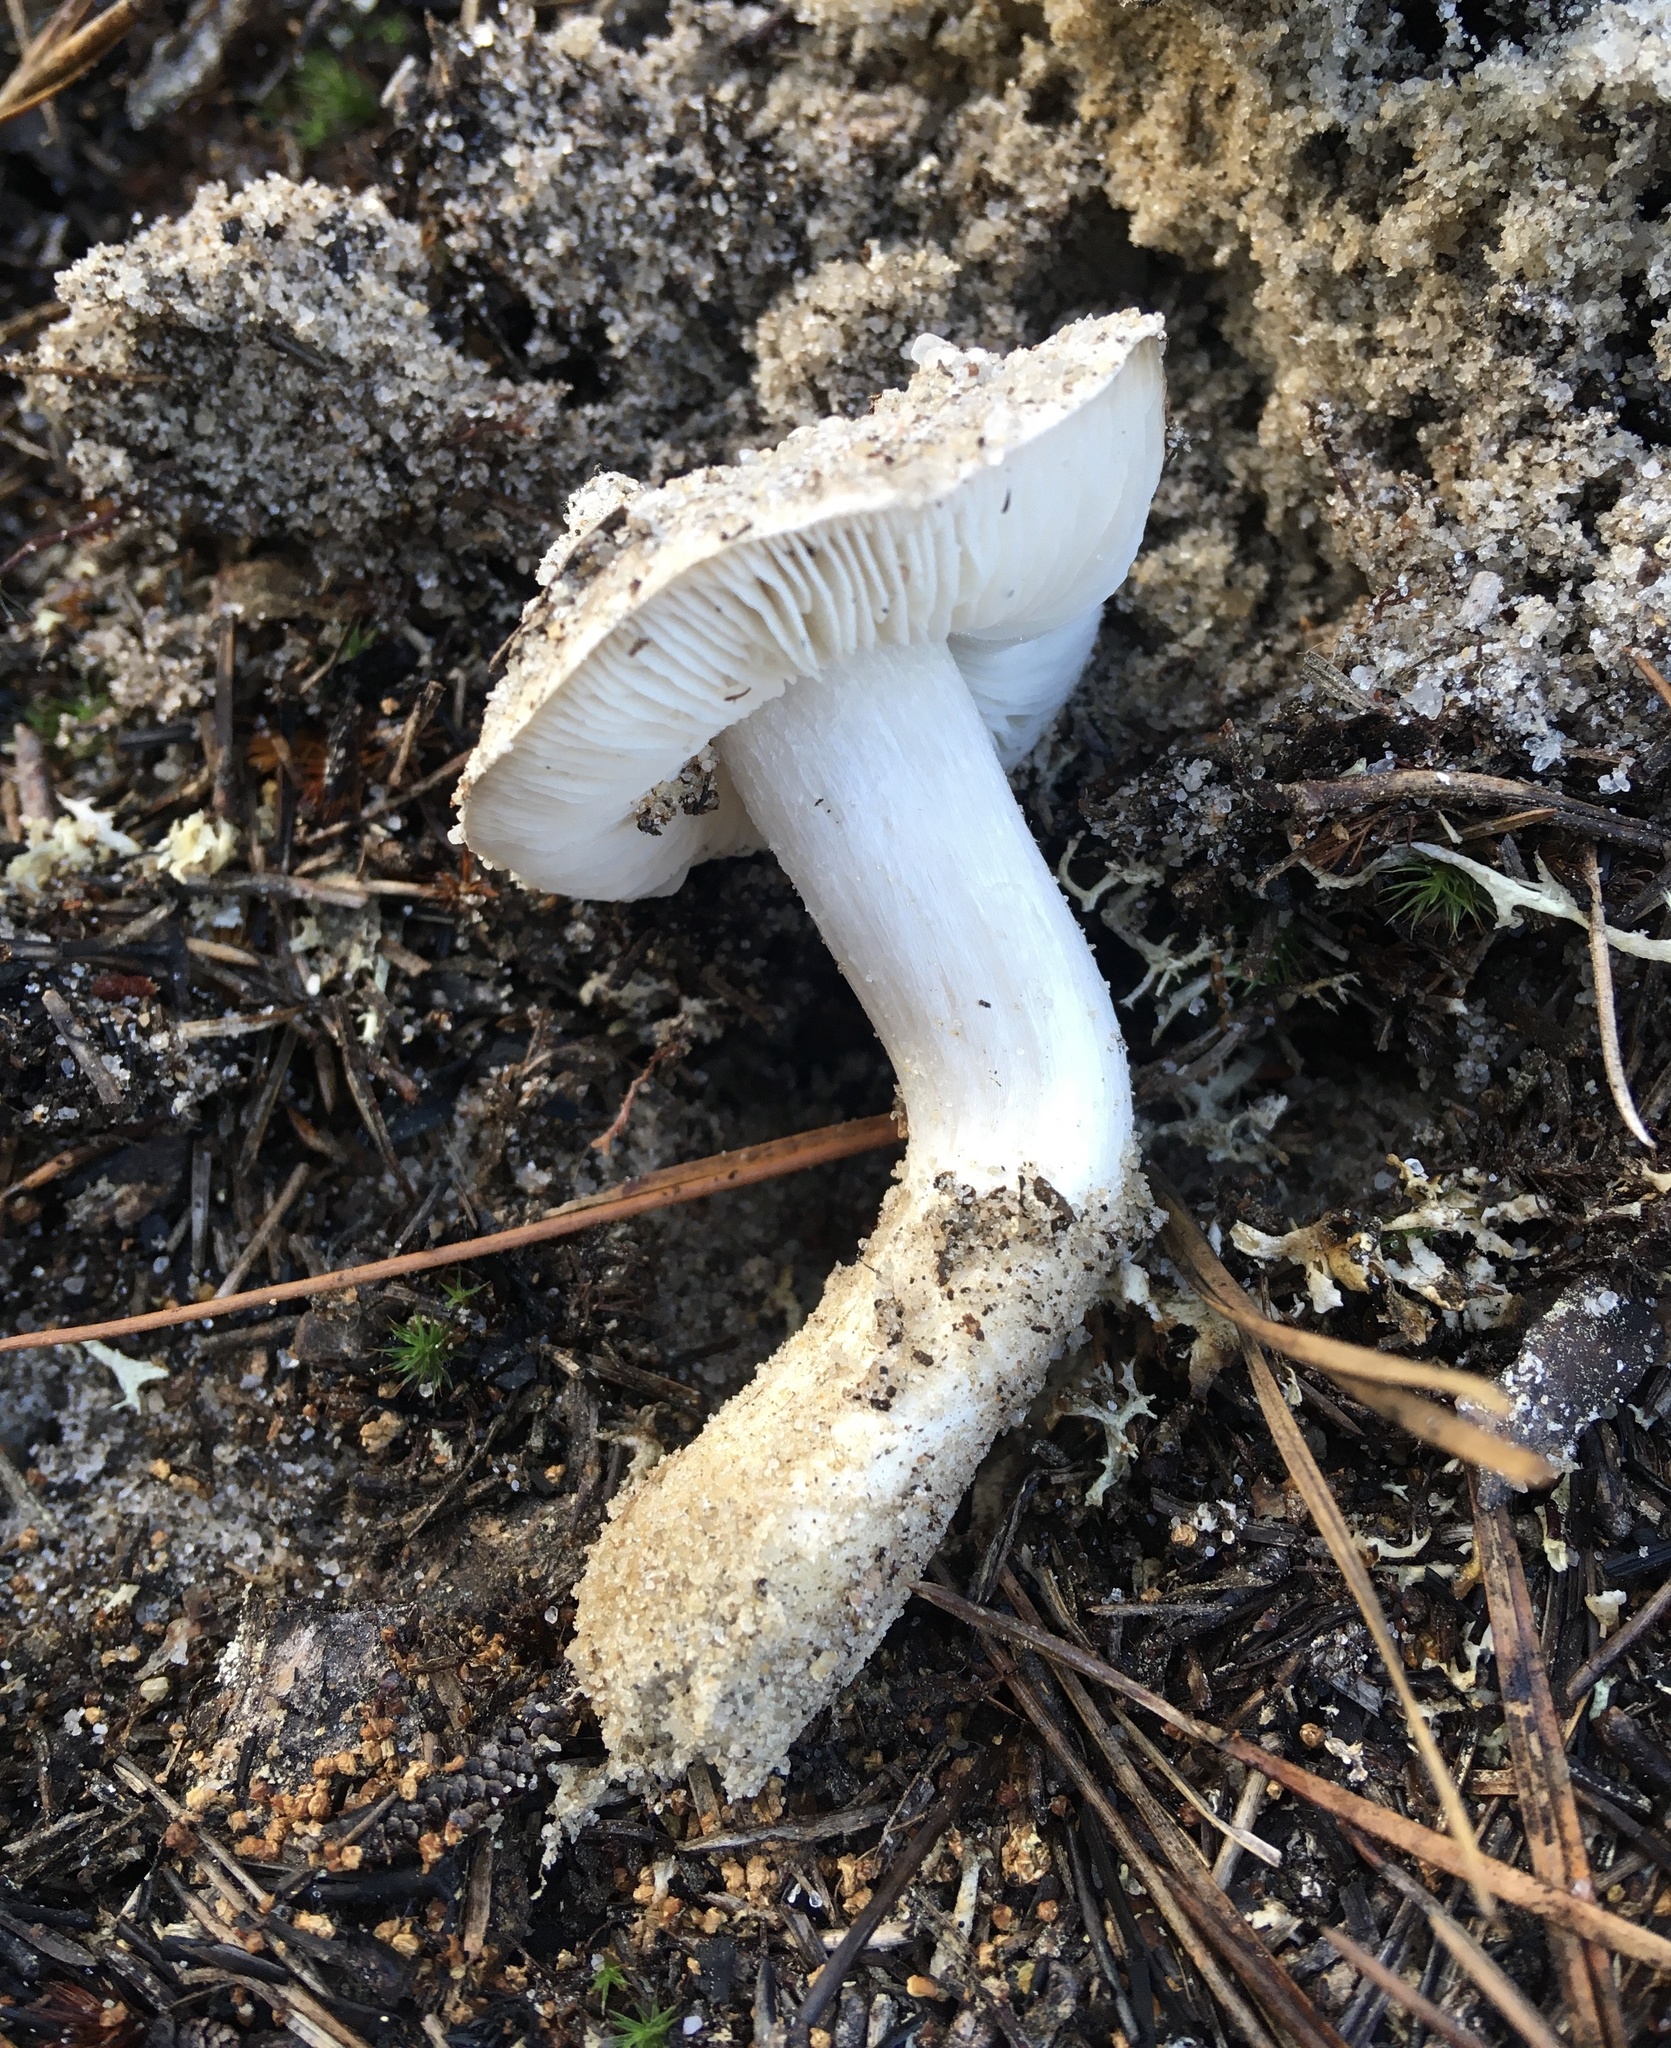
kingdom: Fungi
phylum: Basidiomycota
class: Agaricomycetes
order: Agaricales
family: Tricholomataceae
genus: Tricholoma
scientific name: Tricholoma niveipes
